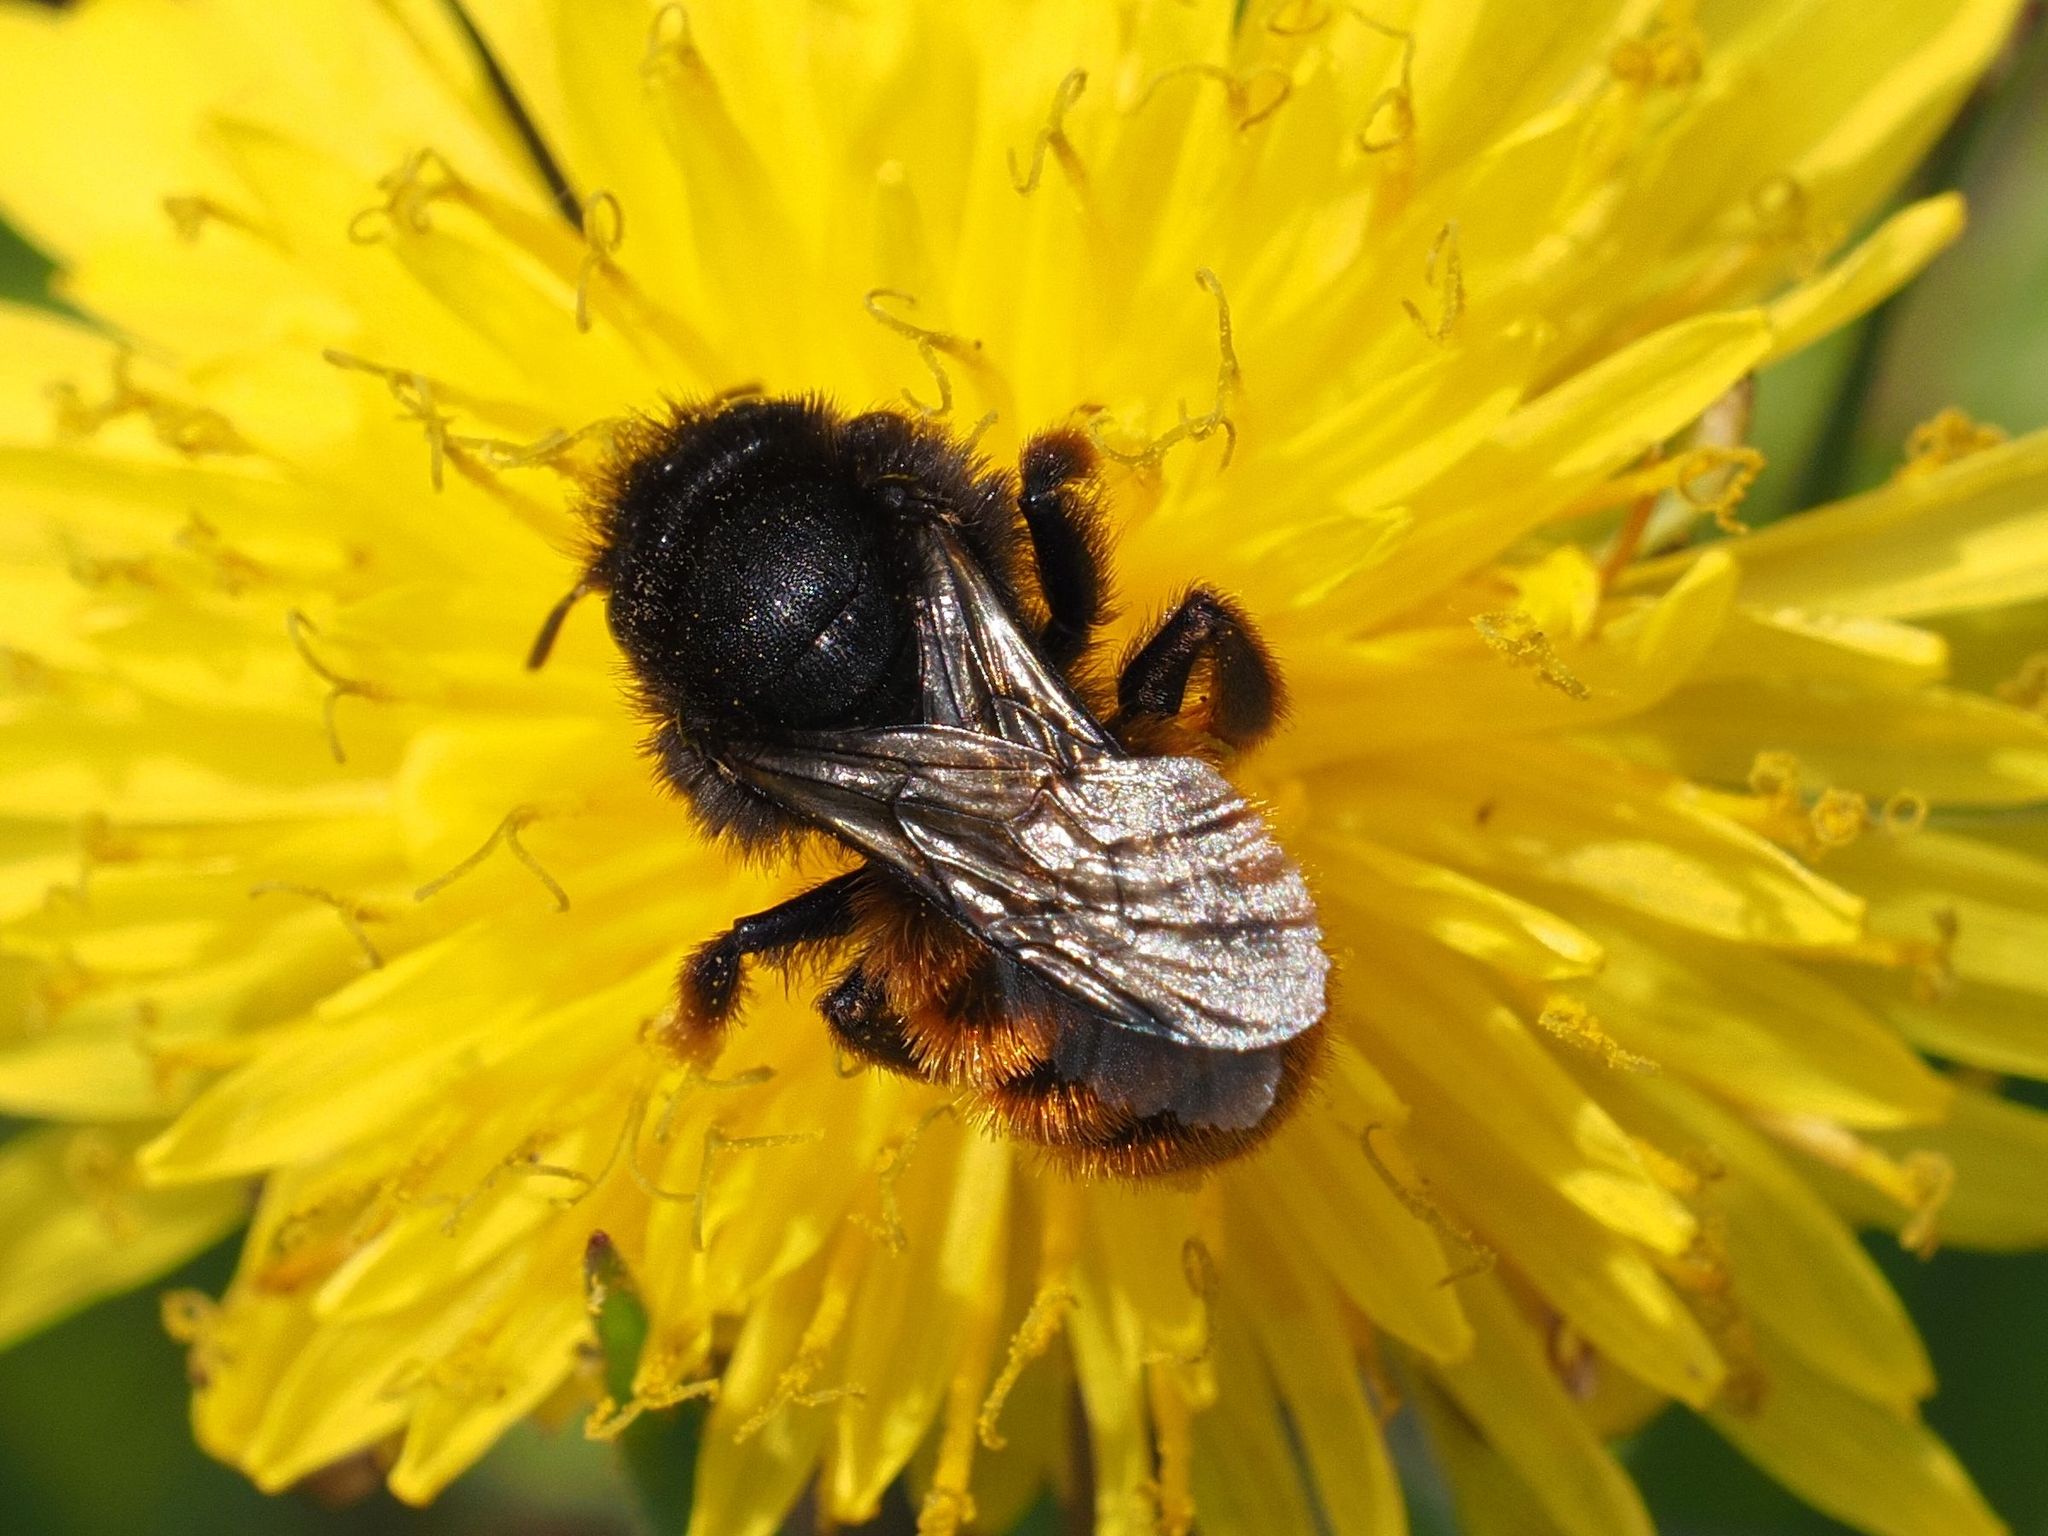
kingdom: Animalia
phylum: Arthropoda
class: Insecta
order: Hymenoptera
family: Megachilidae
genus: Osmia
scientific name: Osmia bicolor
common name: Red-tailed mason bee
